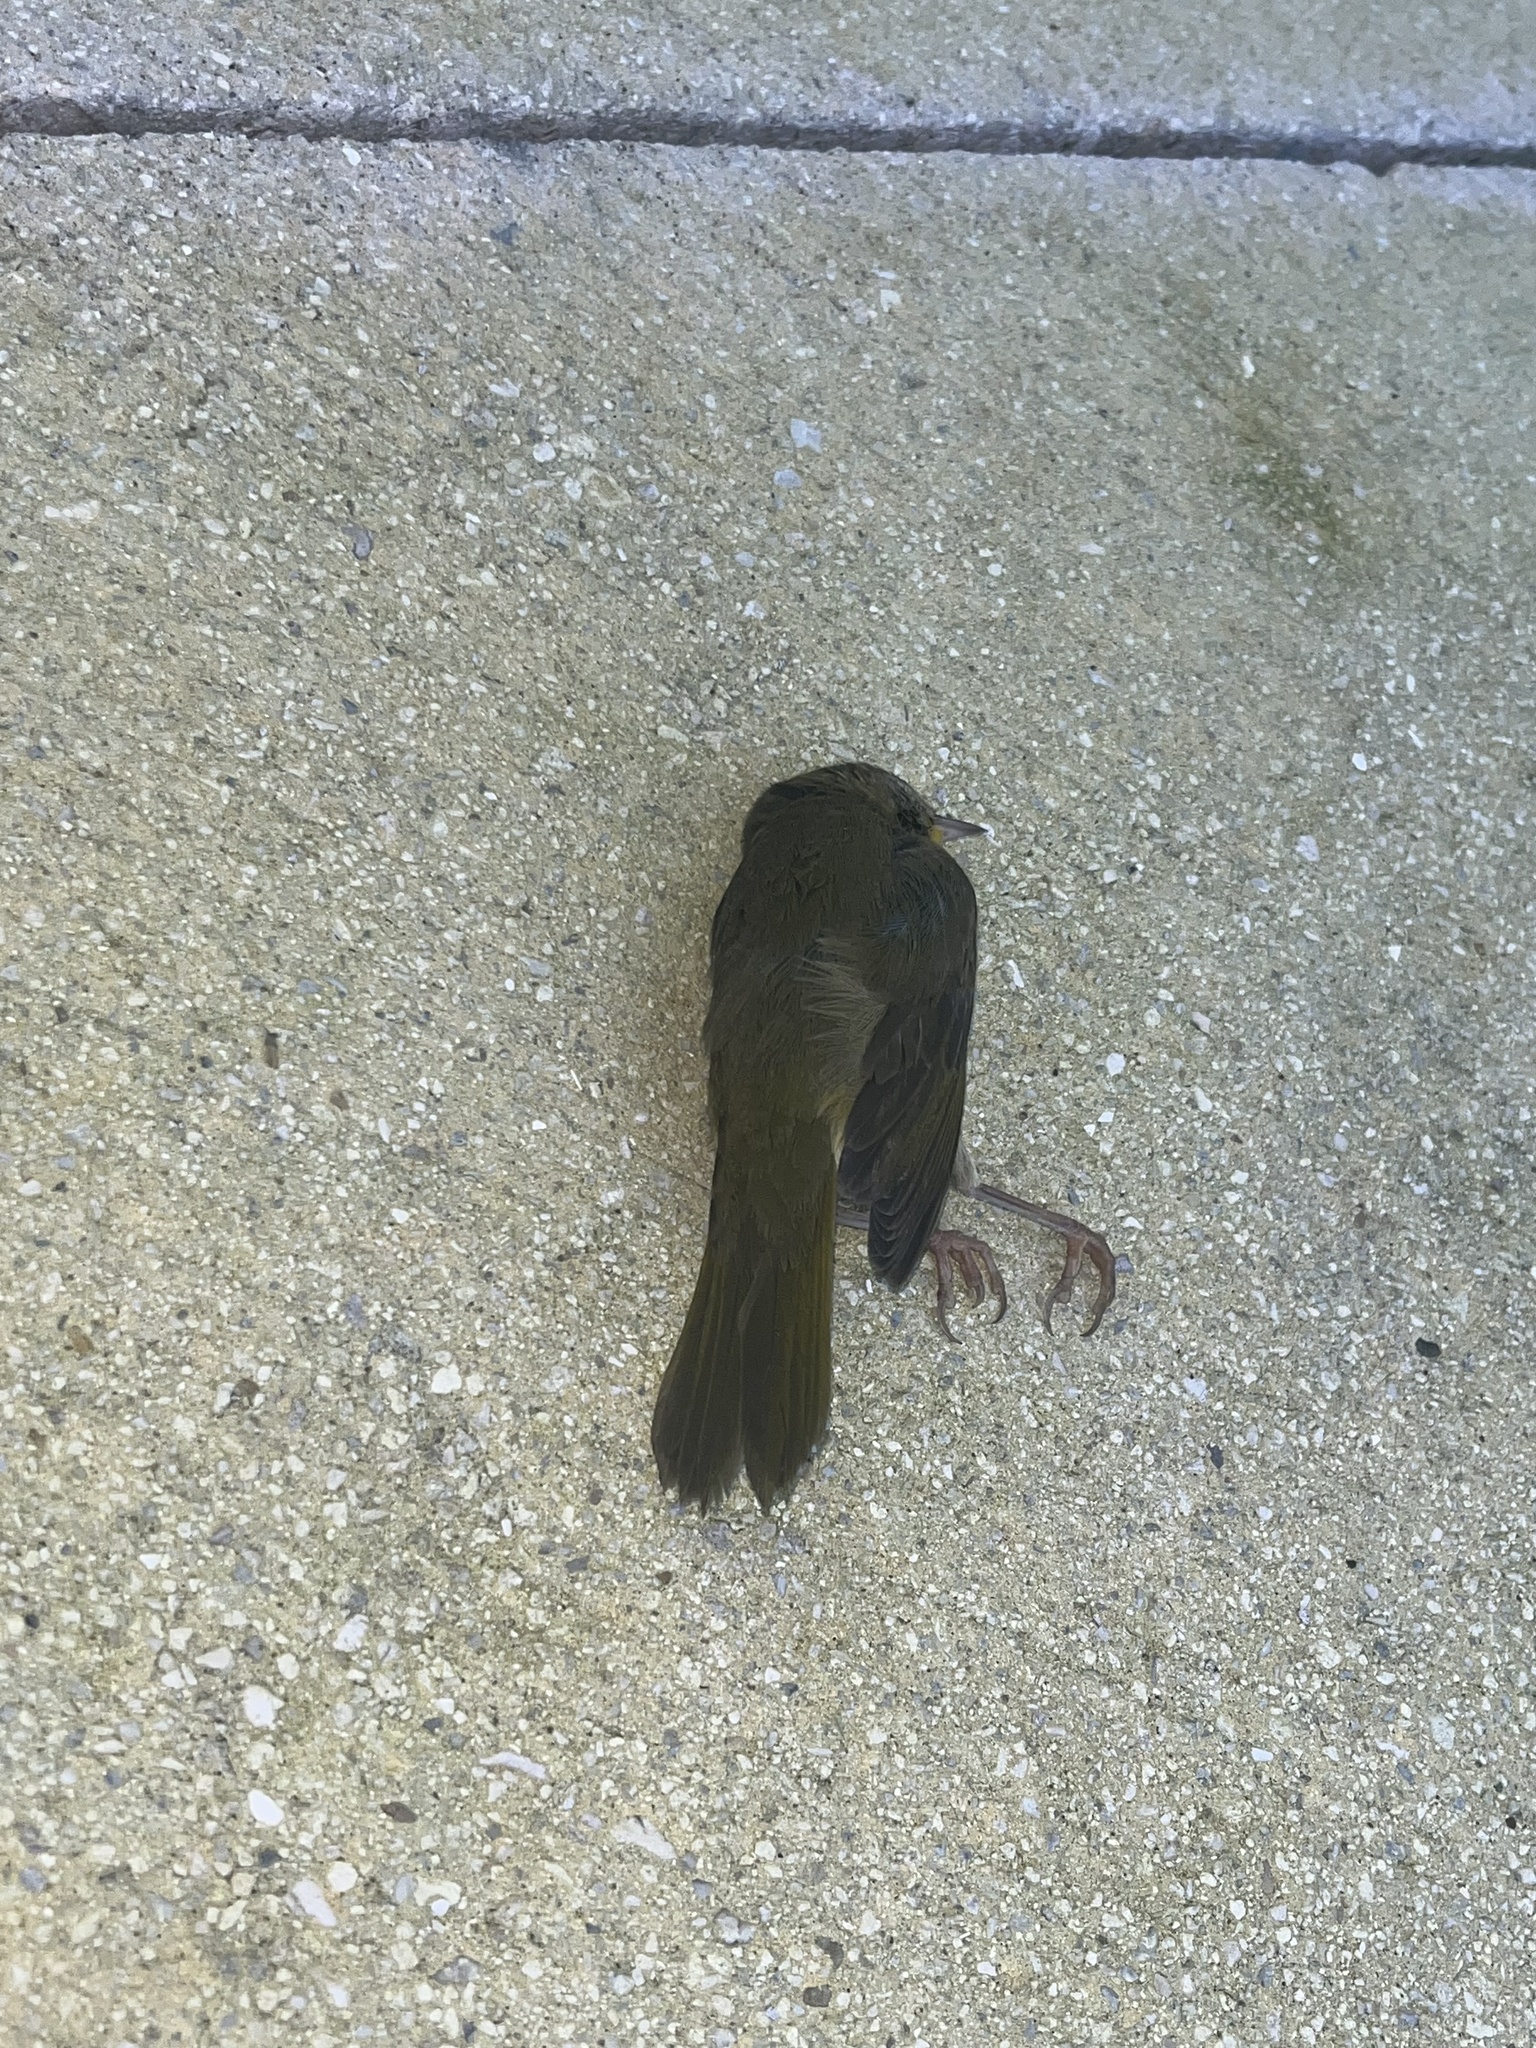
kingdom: Animalia
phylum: Chordata
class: Aves
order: Passeriformes
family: Parulidae
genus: Geothlypis
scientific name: Geothlypis trichas
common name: Common yellowthroat
